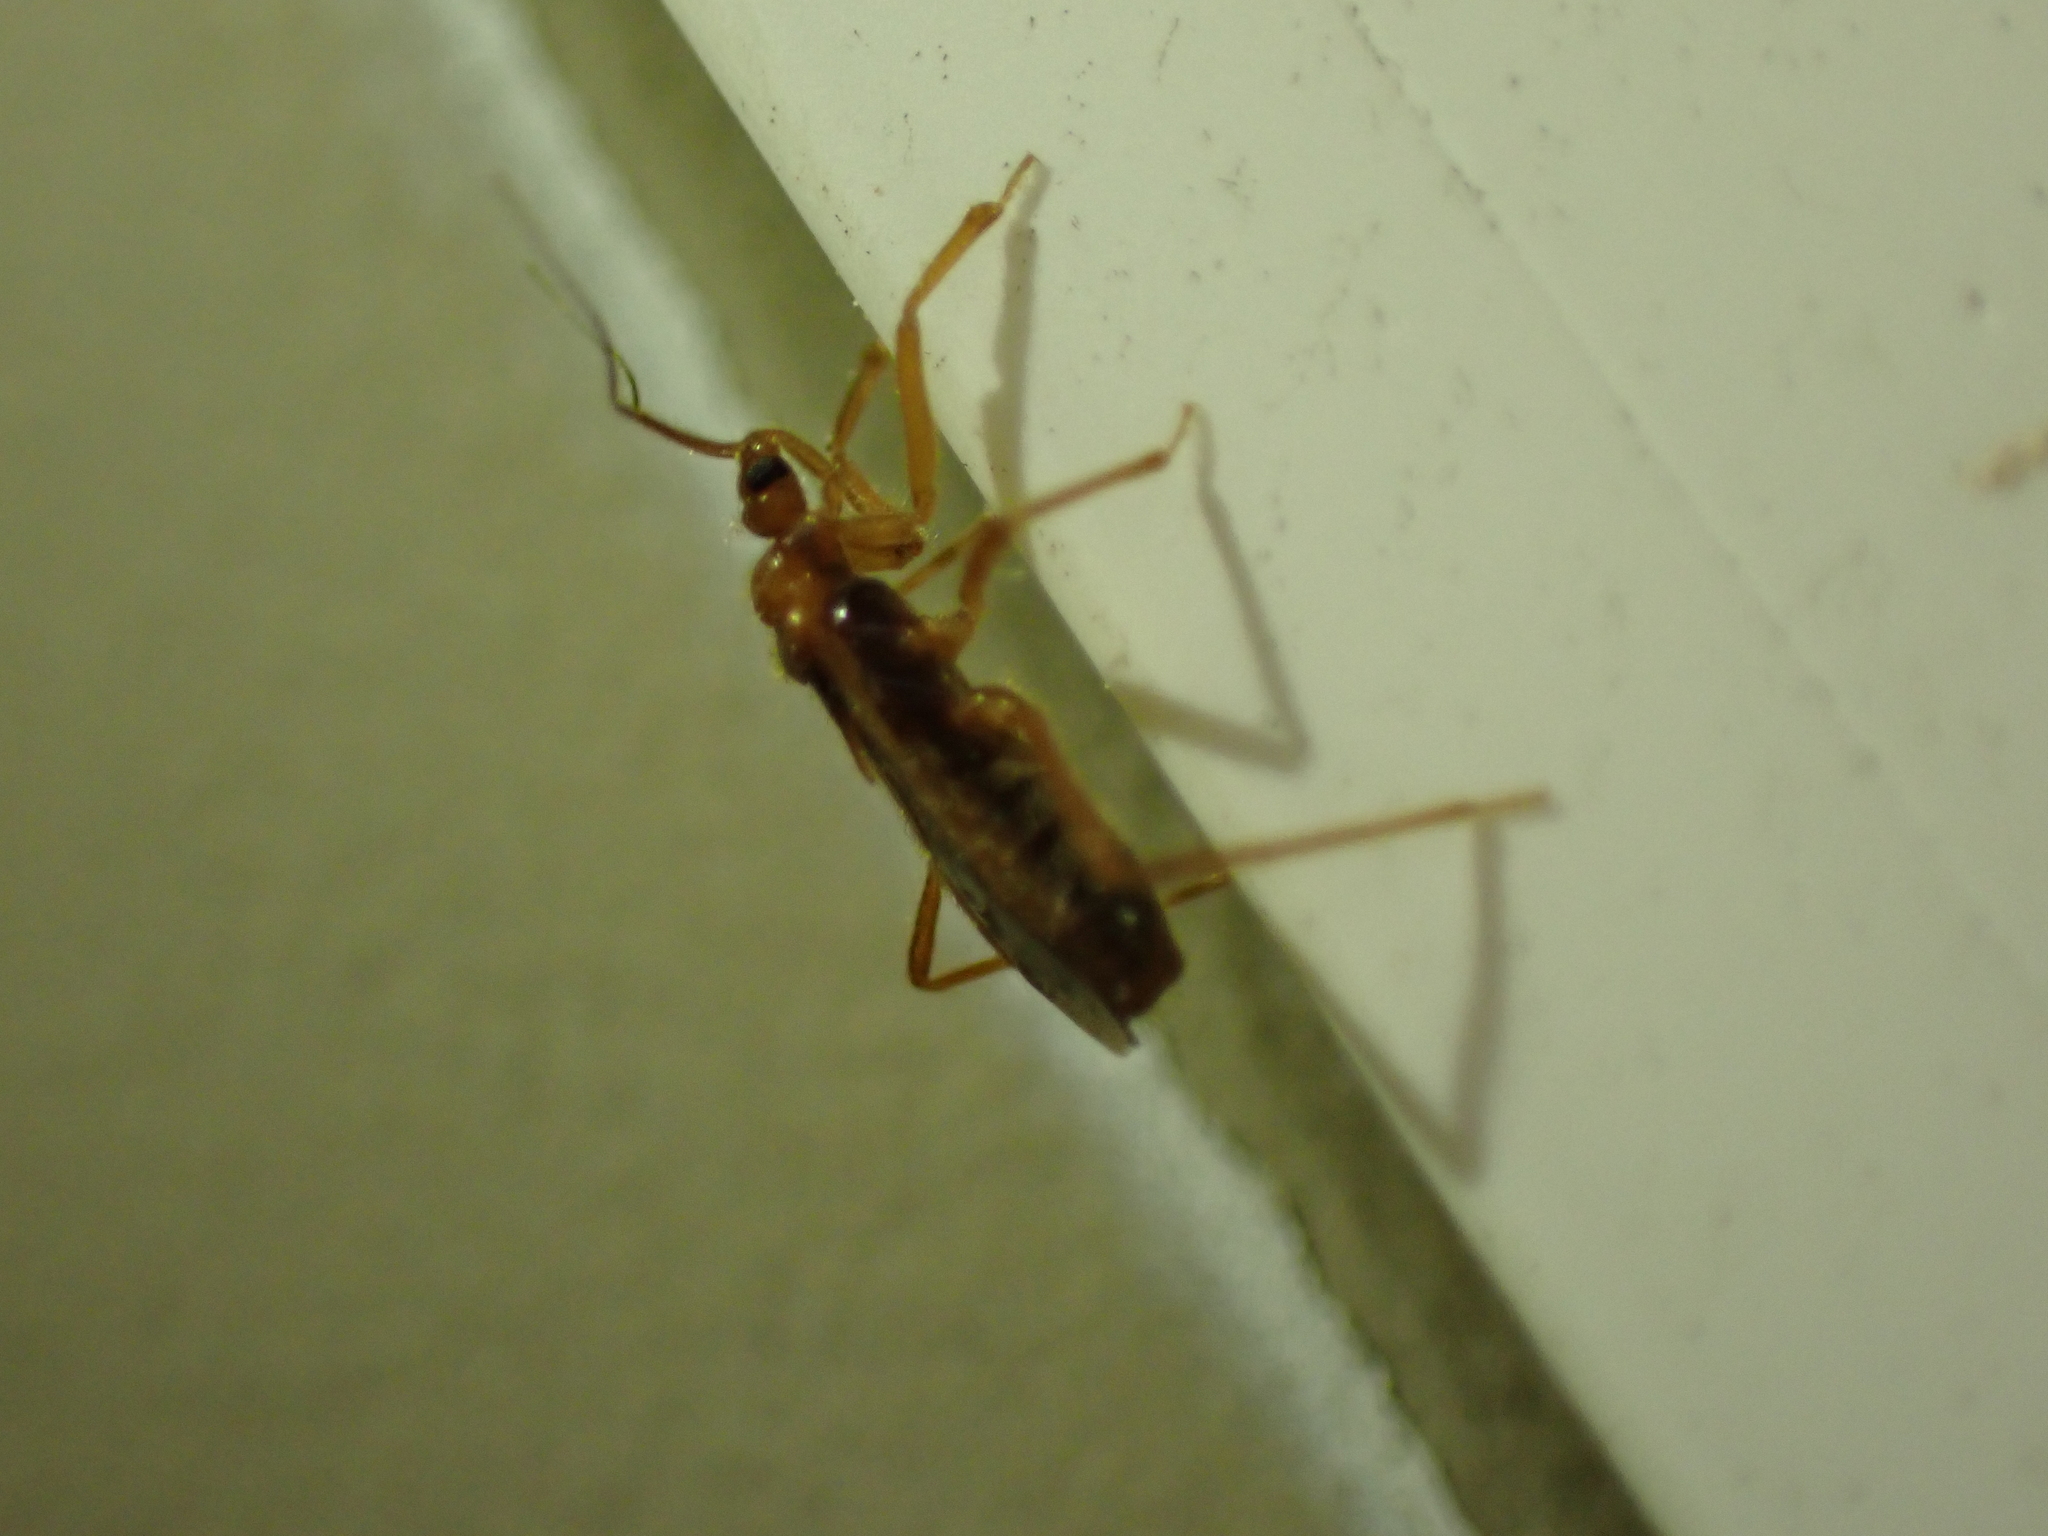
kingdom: Animalia
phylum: Arthropoda
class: Insecta
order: Hemiptera
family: Reduviidae
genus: Oncerotrachelus
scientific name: Oncerotrachelus acuminatus
